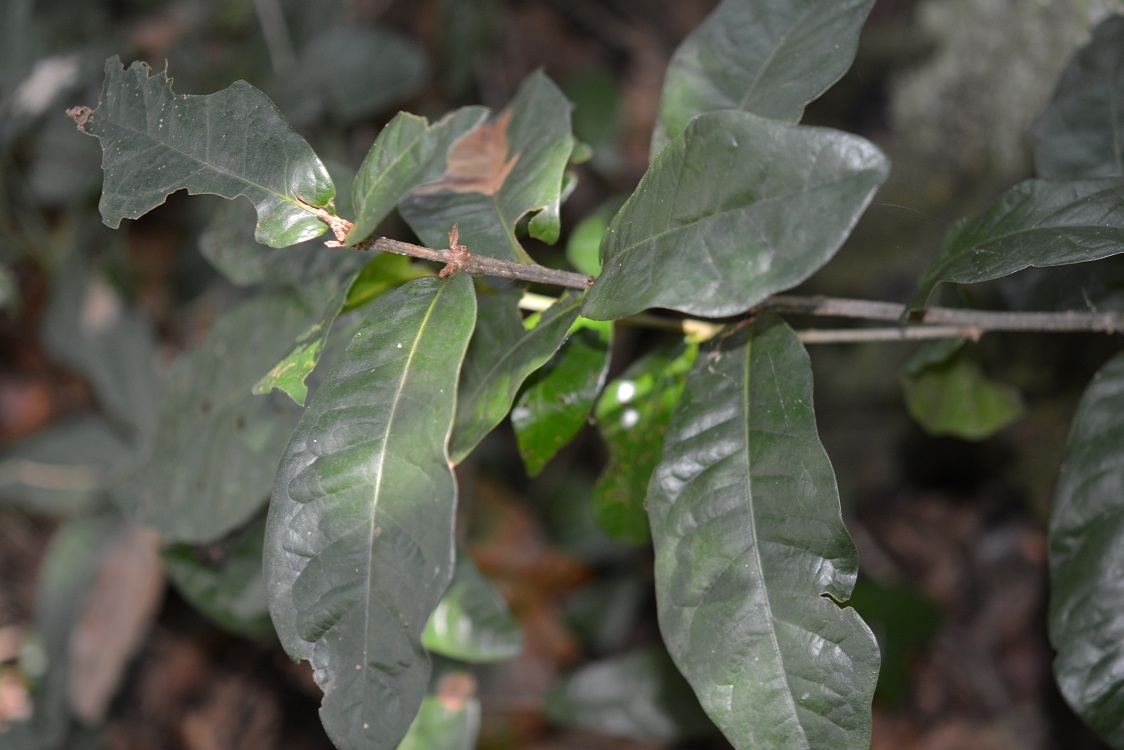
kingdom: Plantae
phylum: Tracheophyta
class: Magnoliopsida
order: Fagales
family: Fagaceae
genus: Quercus
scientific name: Quercus sapotifolia
